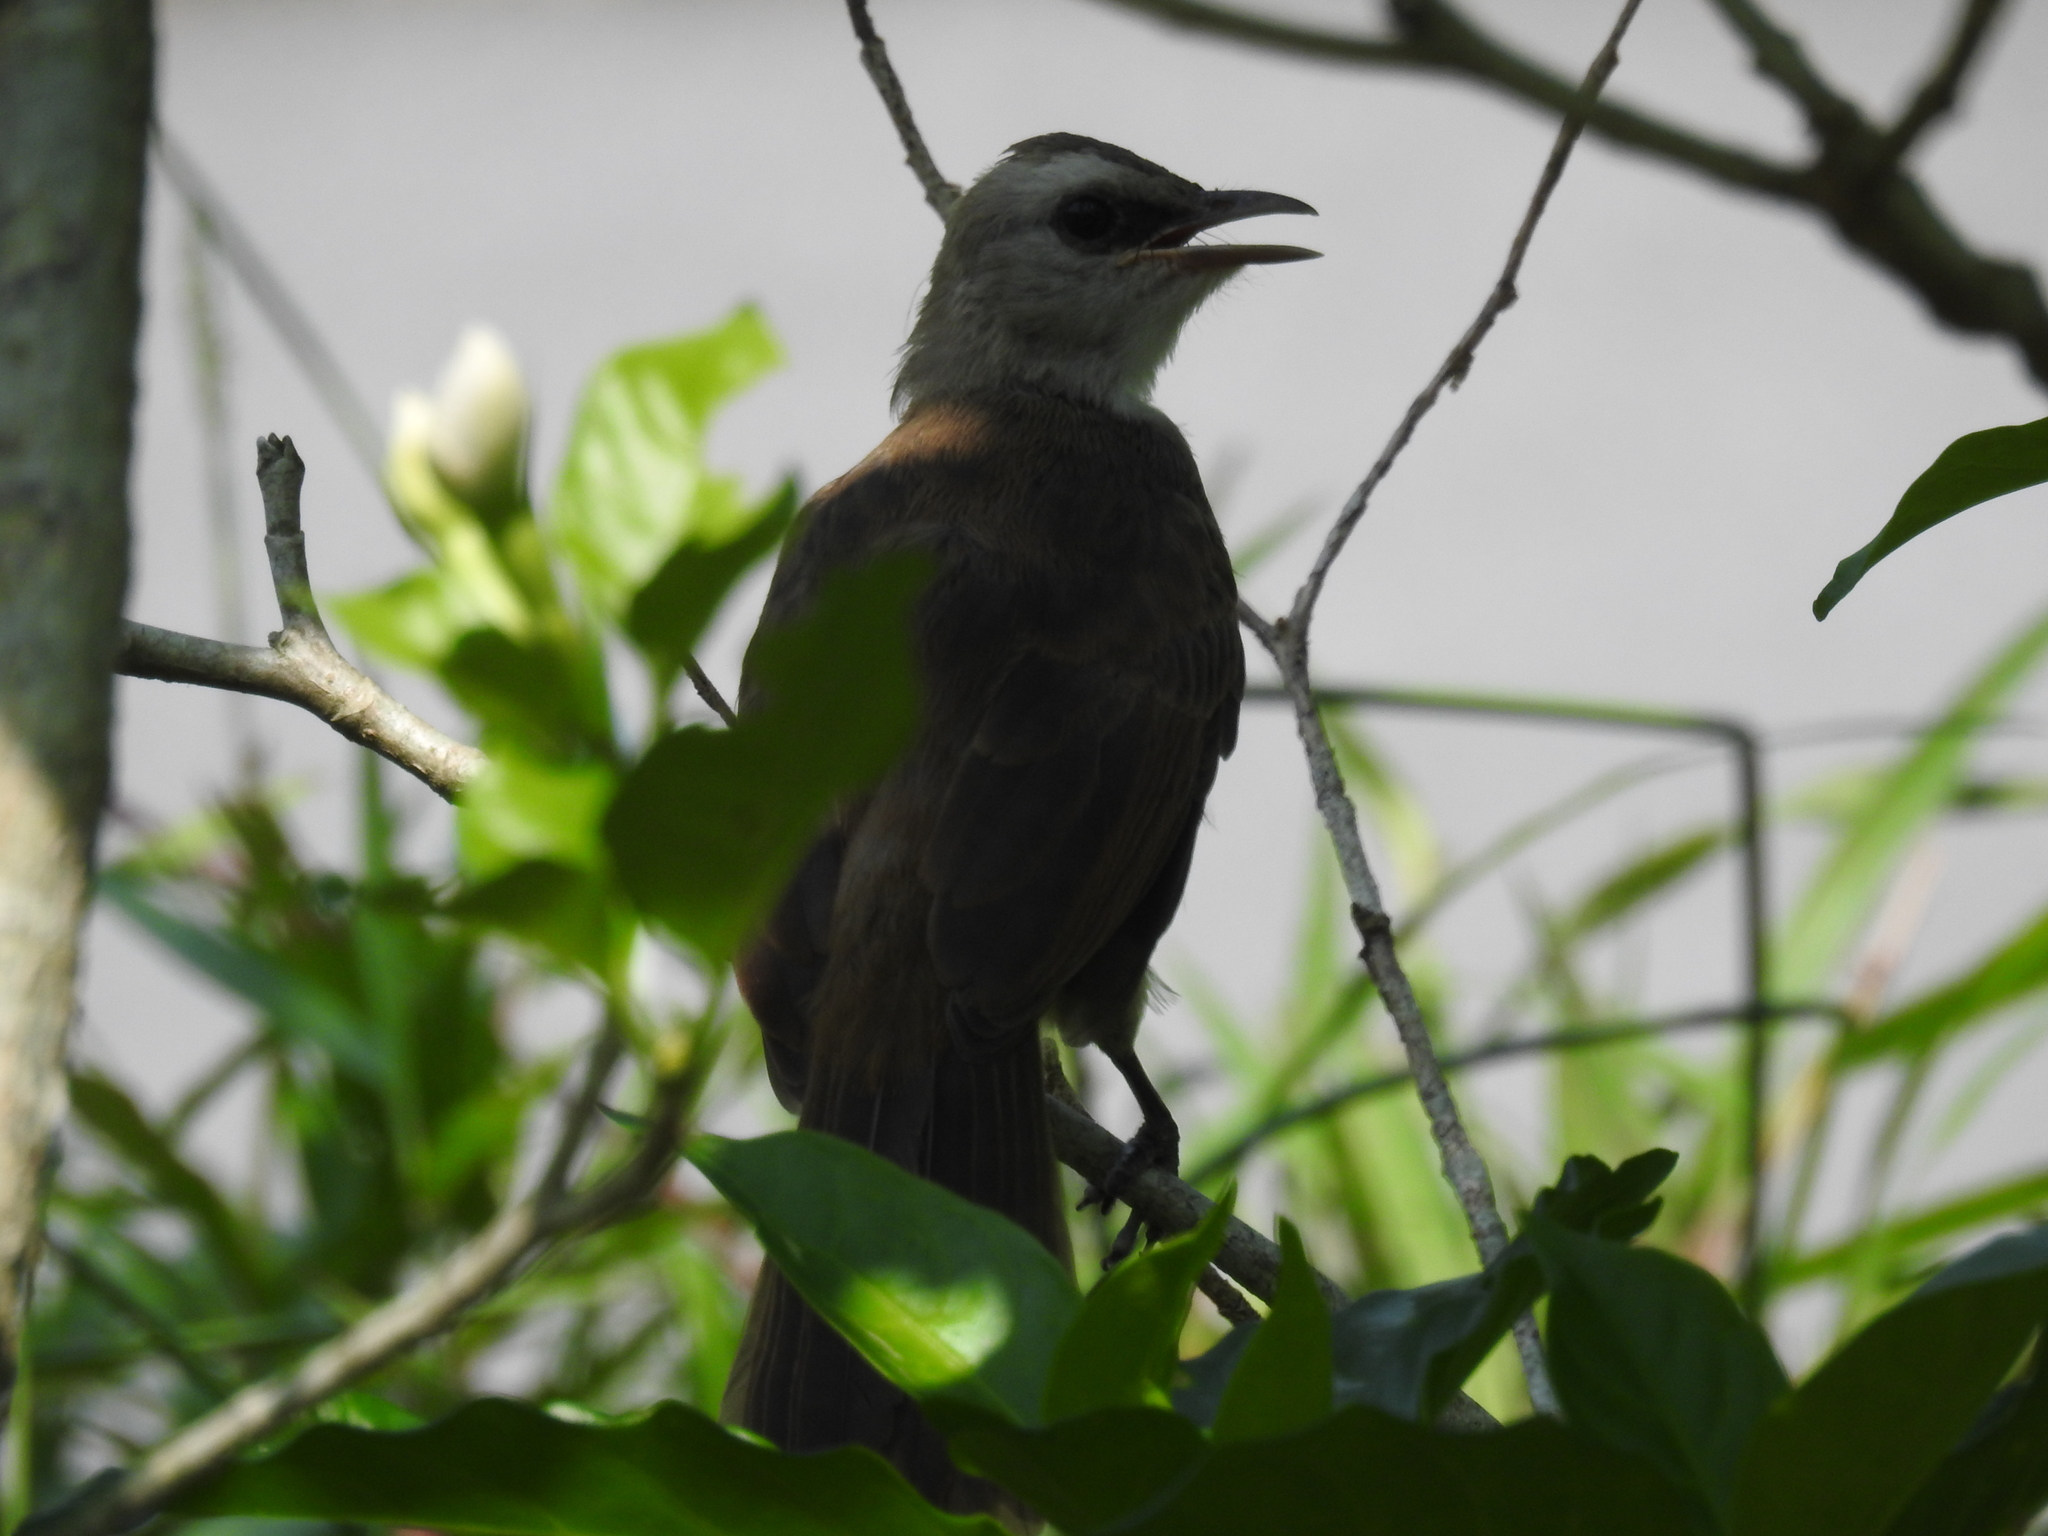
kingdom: Animalia
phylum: Chordata
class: Aves
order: Passeriformes
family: Pycnonotidae
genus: Pycnonotus
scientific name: Pycnonotus goiavier
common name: Yellow-vented bulbul
